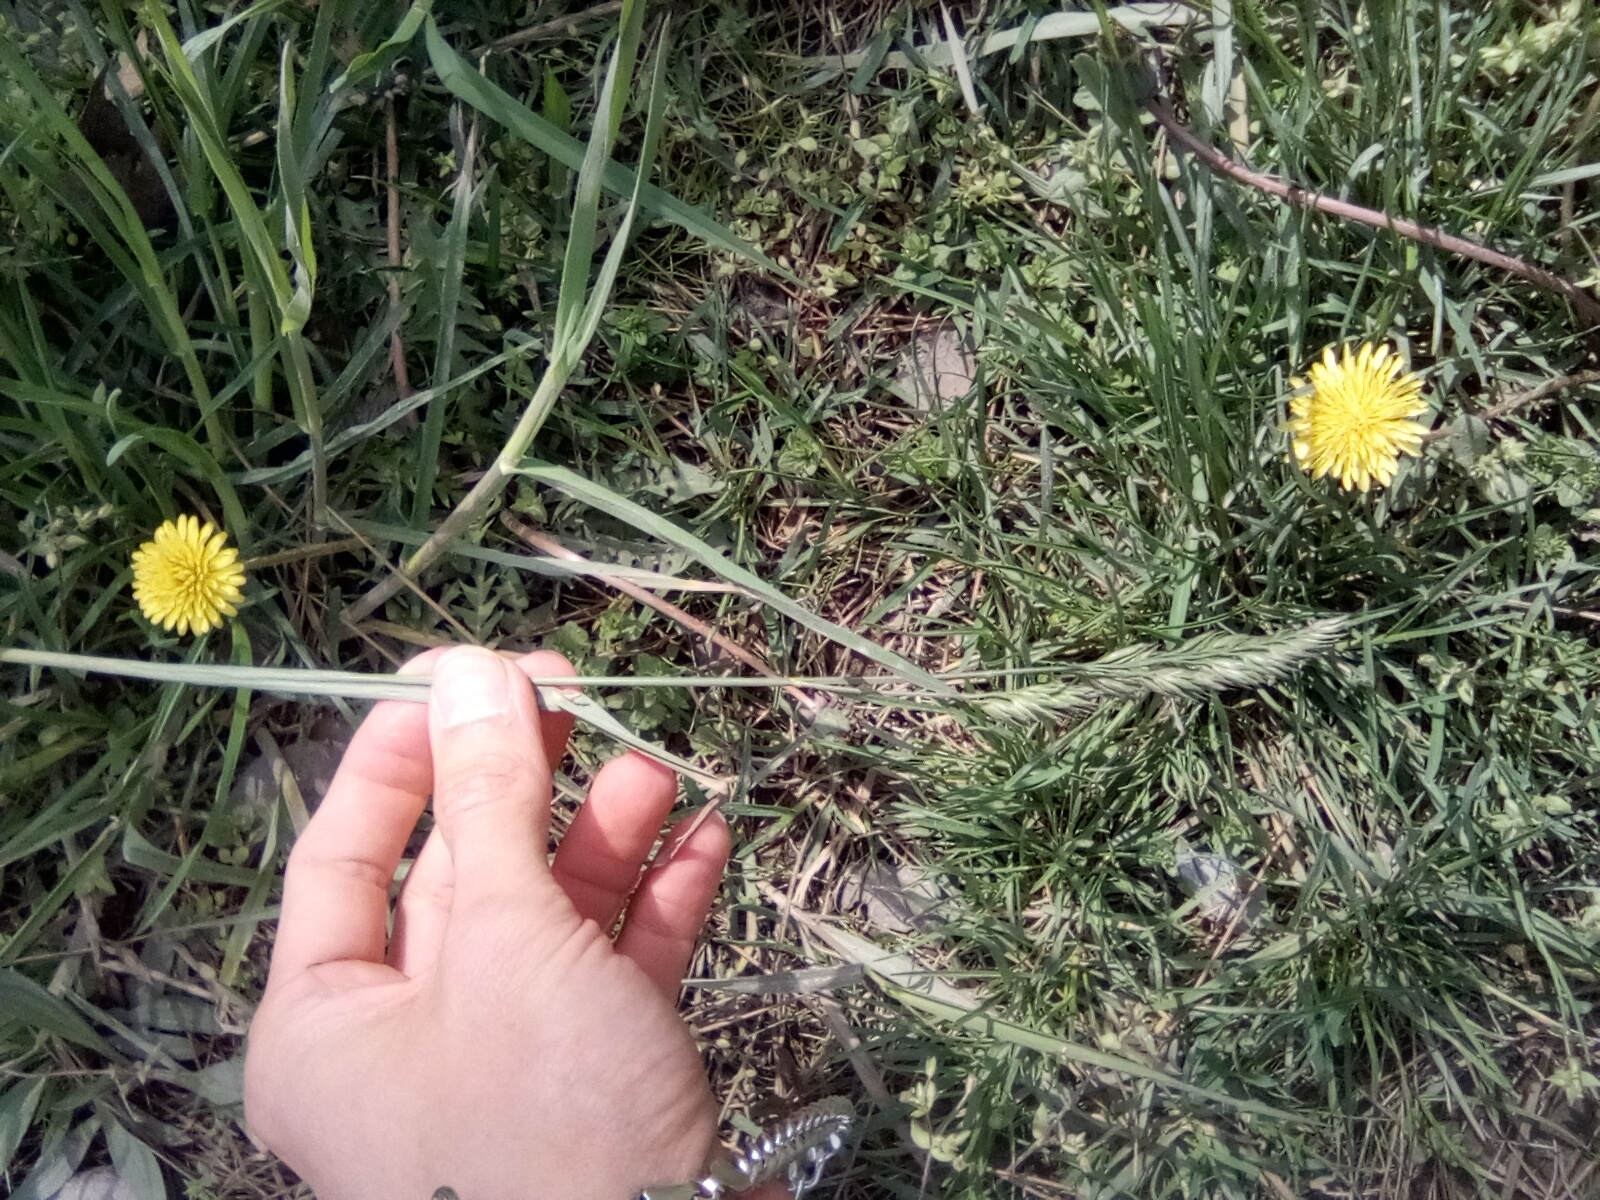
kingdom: Plantae
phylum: Tracheophyta
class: Liliopsida
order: Poales
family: Poaceae
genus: Dactylis
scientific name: Dactylis glomerata
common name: Orchardgrass
